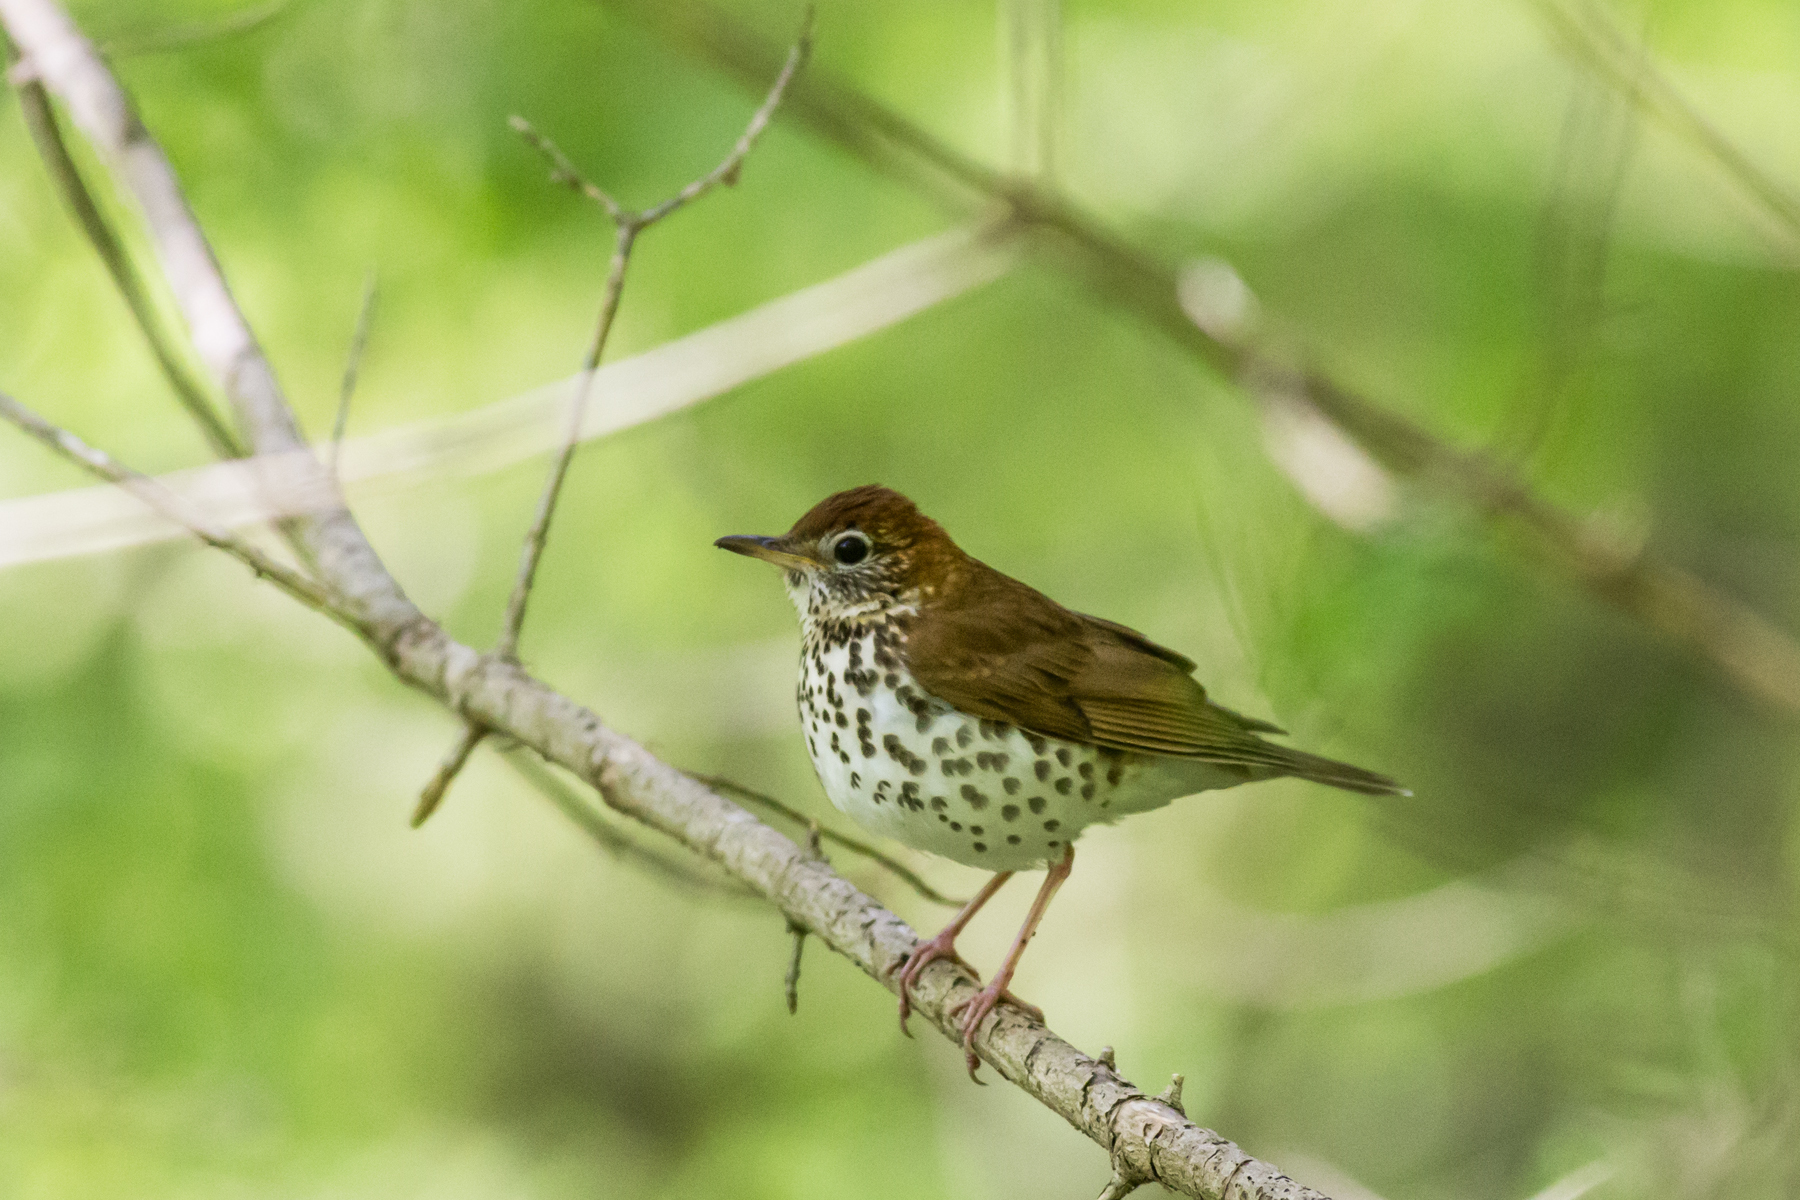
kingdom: Animalia
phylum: Chordata
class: Aves
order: Passeriformes
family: Turdidae
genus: Hylocichla
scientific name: Hylocichla mustelina
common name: Wood thrush
